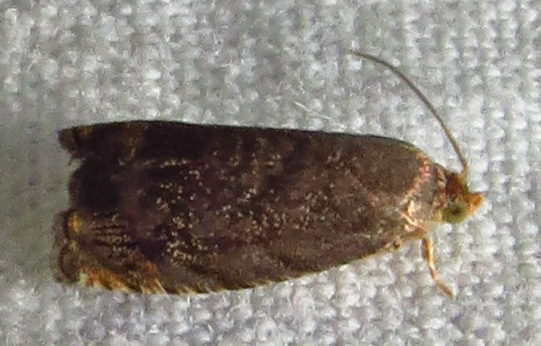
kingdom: Animalia
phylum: Arthropoda
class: Insecta
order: Lepidoptera
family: Tortricidae
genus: Cydia
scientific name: Cydia caryana
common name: Hickory shuckworm moth
